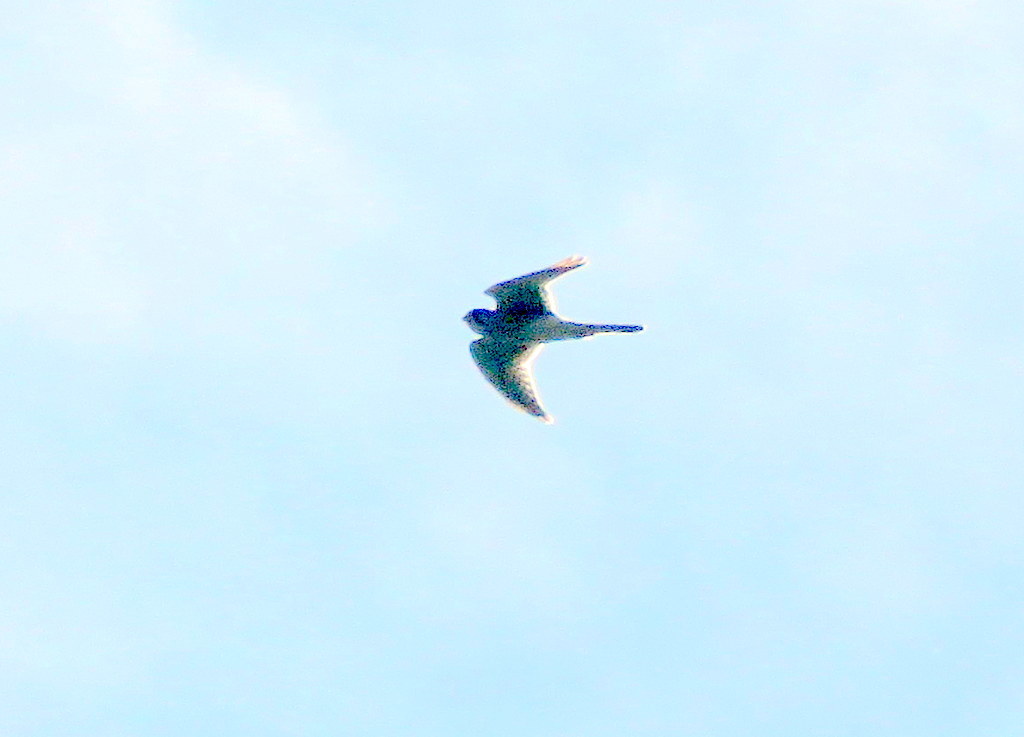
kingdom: Animalia
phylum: Chordata
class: Aves
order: Falconiformes
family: Falconidae
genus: Falco
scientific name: Falco sparverius
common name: American kestrel
